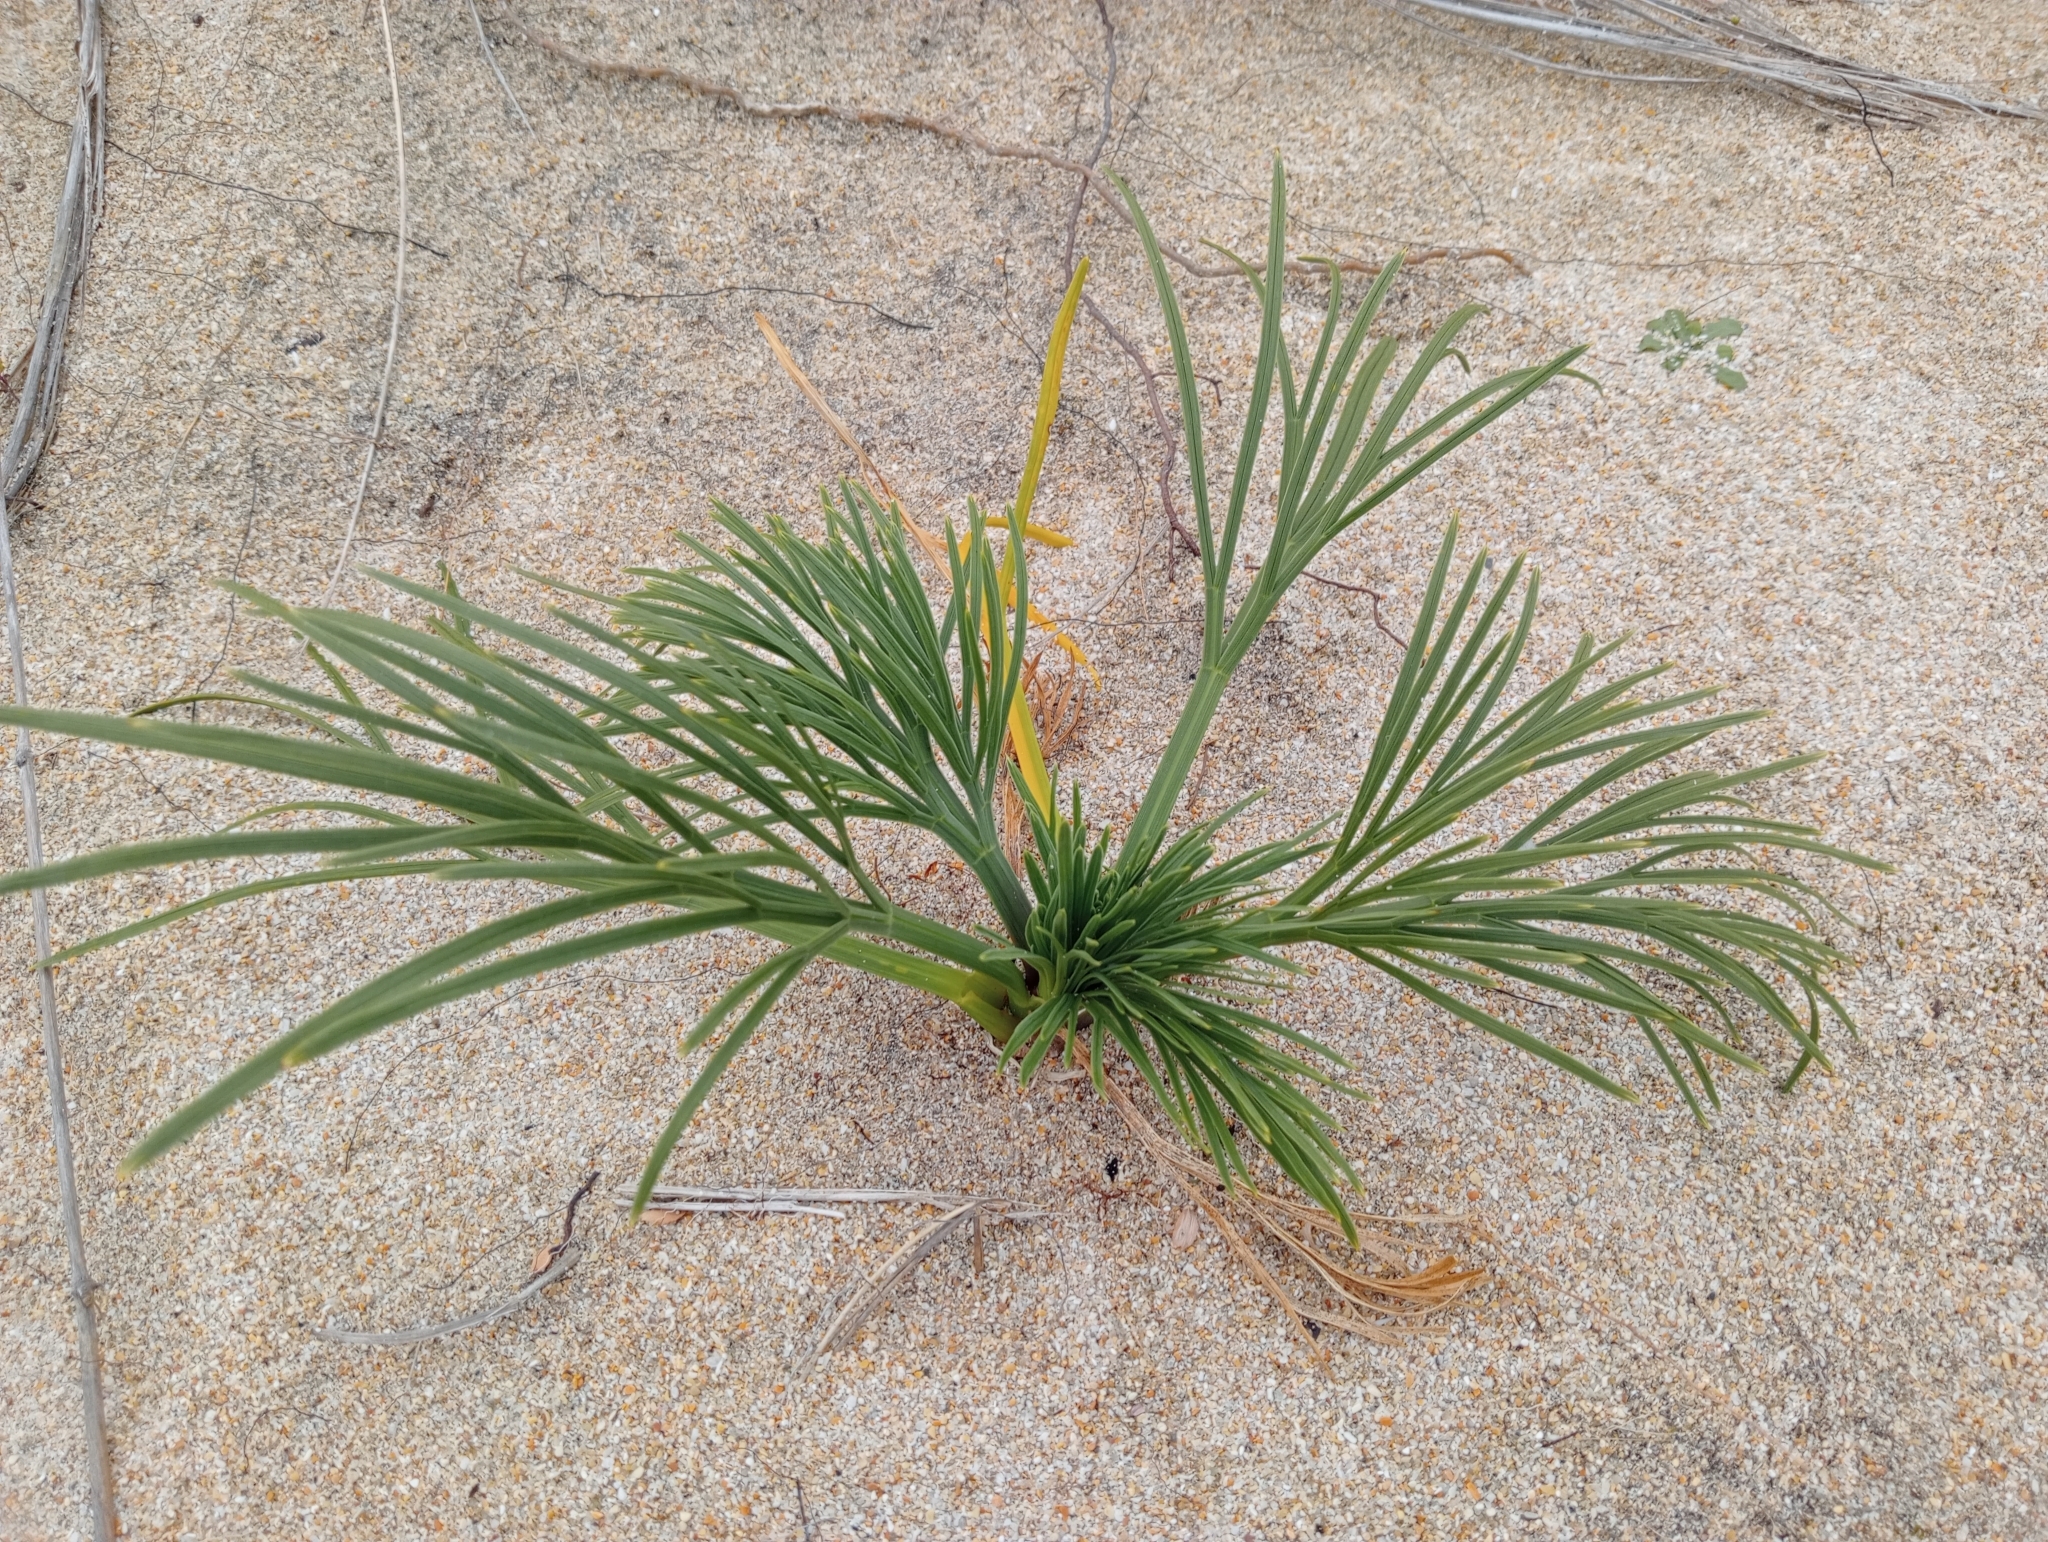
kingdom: Plantae
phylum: Tracheophyta
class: Magnoliopsida
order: Apiales
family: Apiaceae
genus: Aciphylla
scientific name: Aciphylla dieffenbachii
